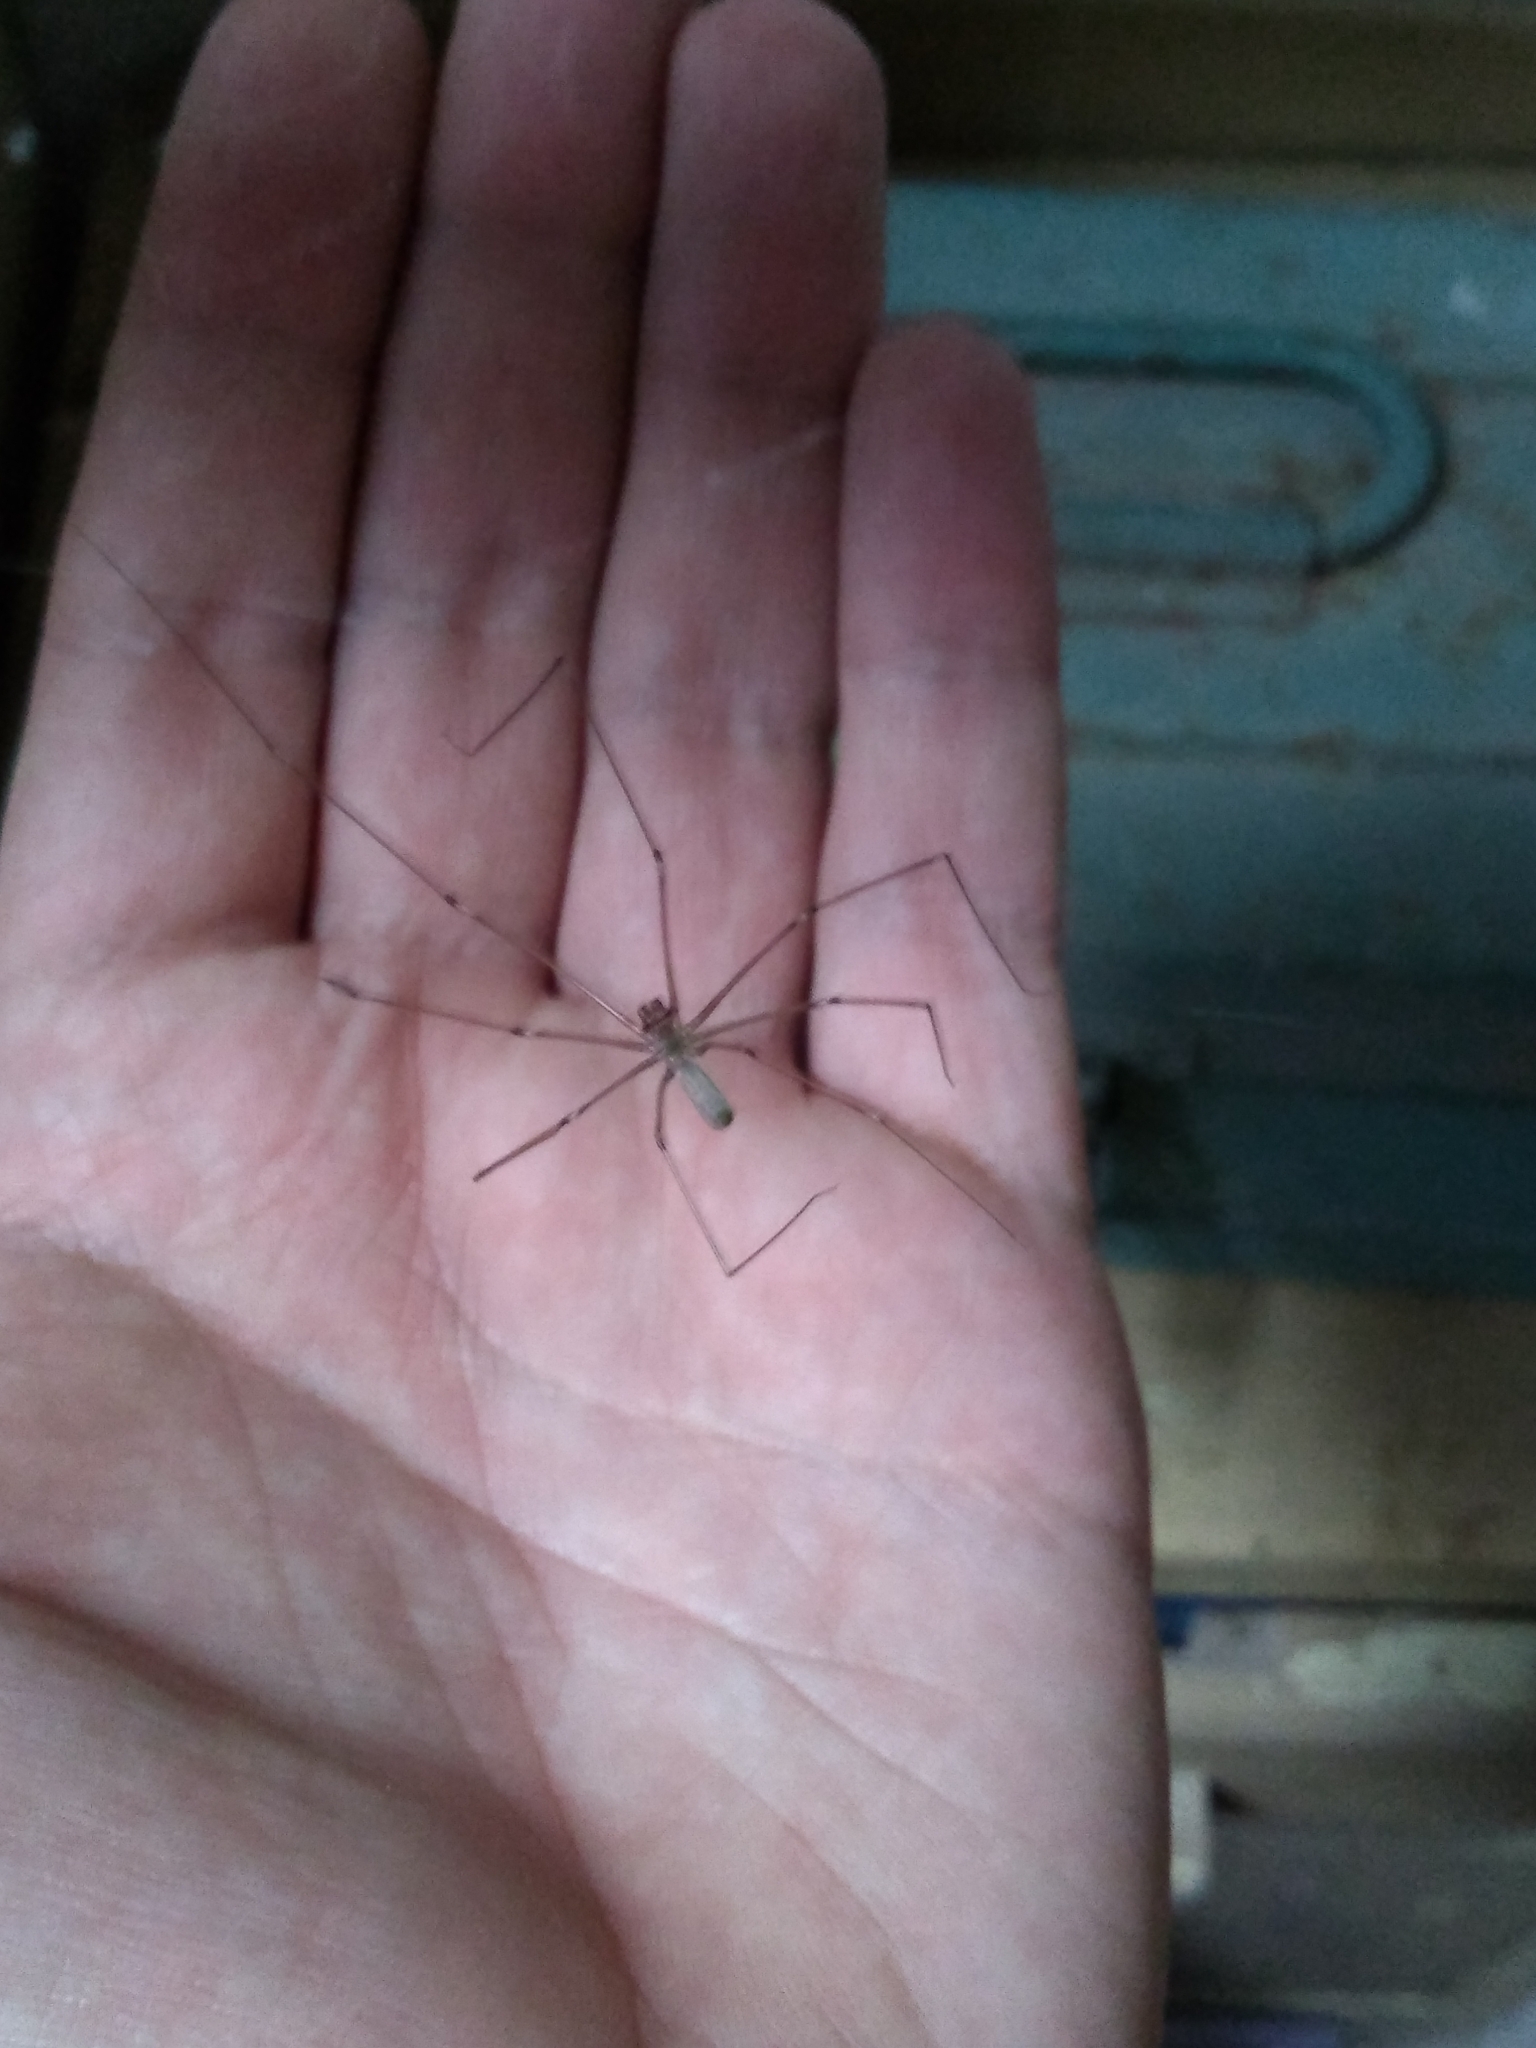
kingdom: Animalia
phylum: Arthropoda
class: Arachnida
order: Araneae
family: Pholcidae
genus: Pholcus
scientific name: Pholcus phalangioides
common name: Longbodied cellar spider
